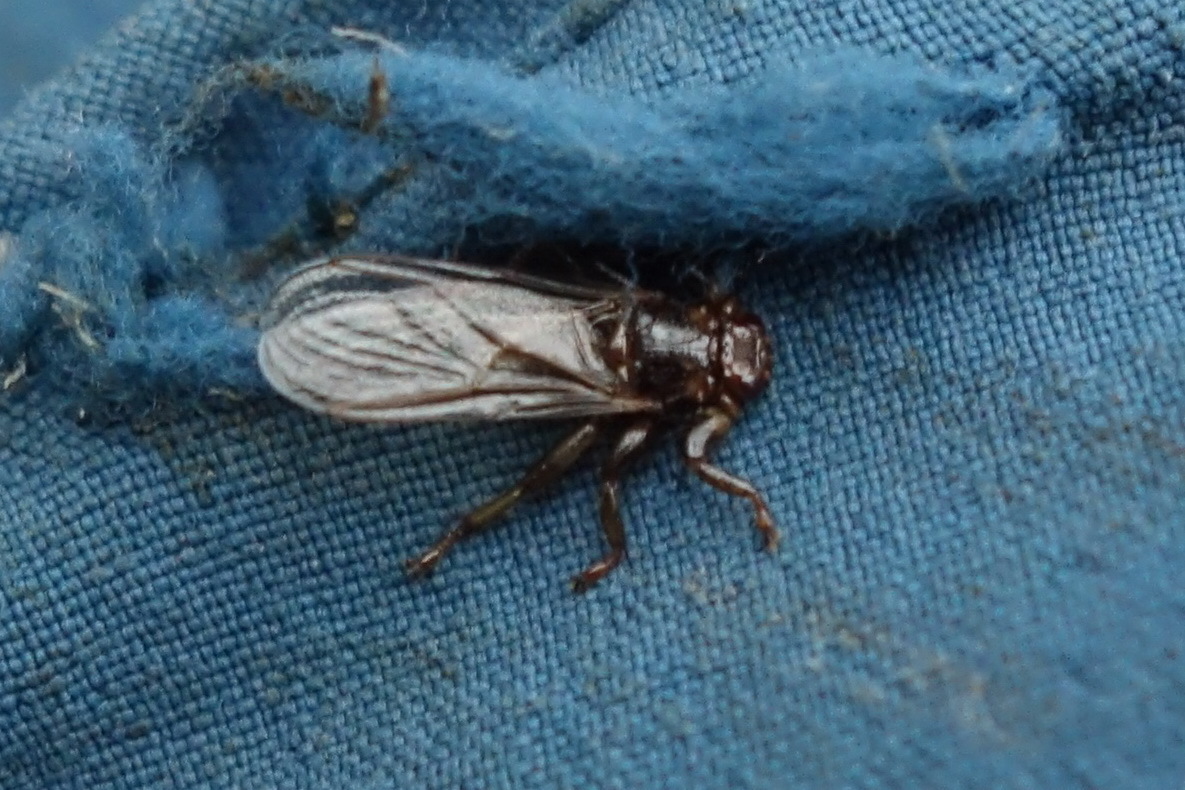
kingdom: Animalia
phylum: Arthropoda
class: Insecta
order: Diptera
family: Hippoboscidae
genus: Lipoptena
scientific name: Lipoptena cervi
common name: Deer ked
